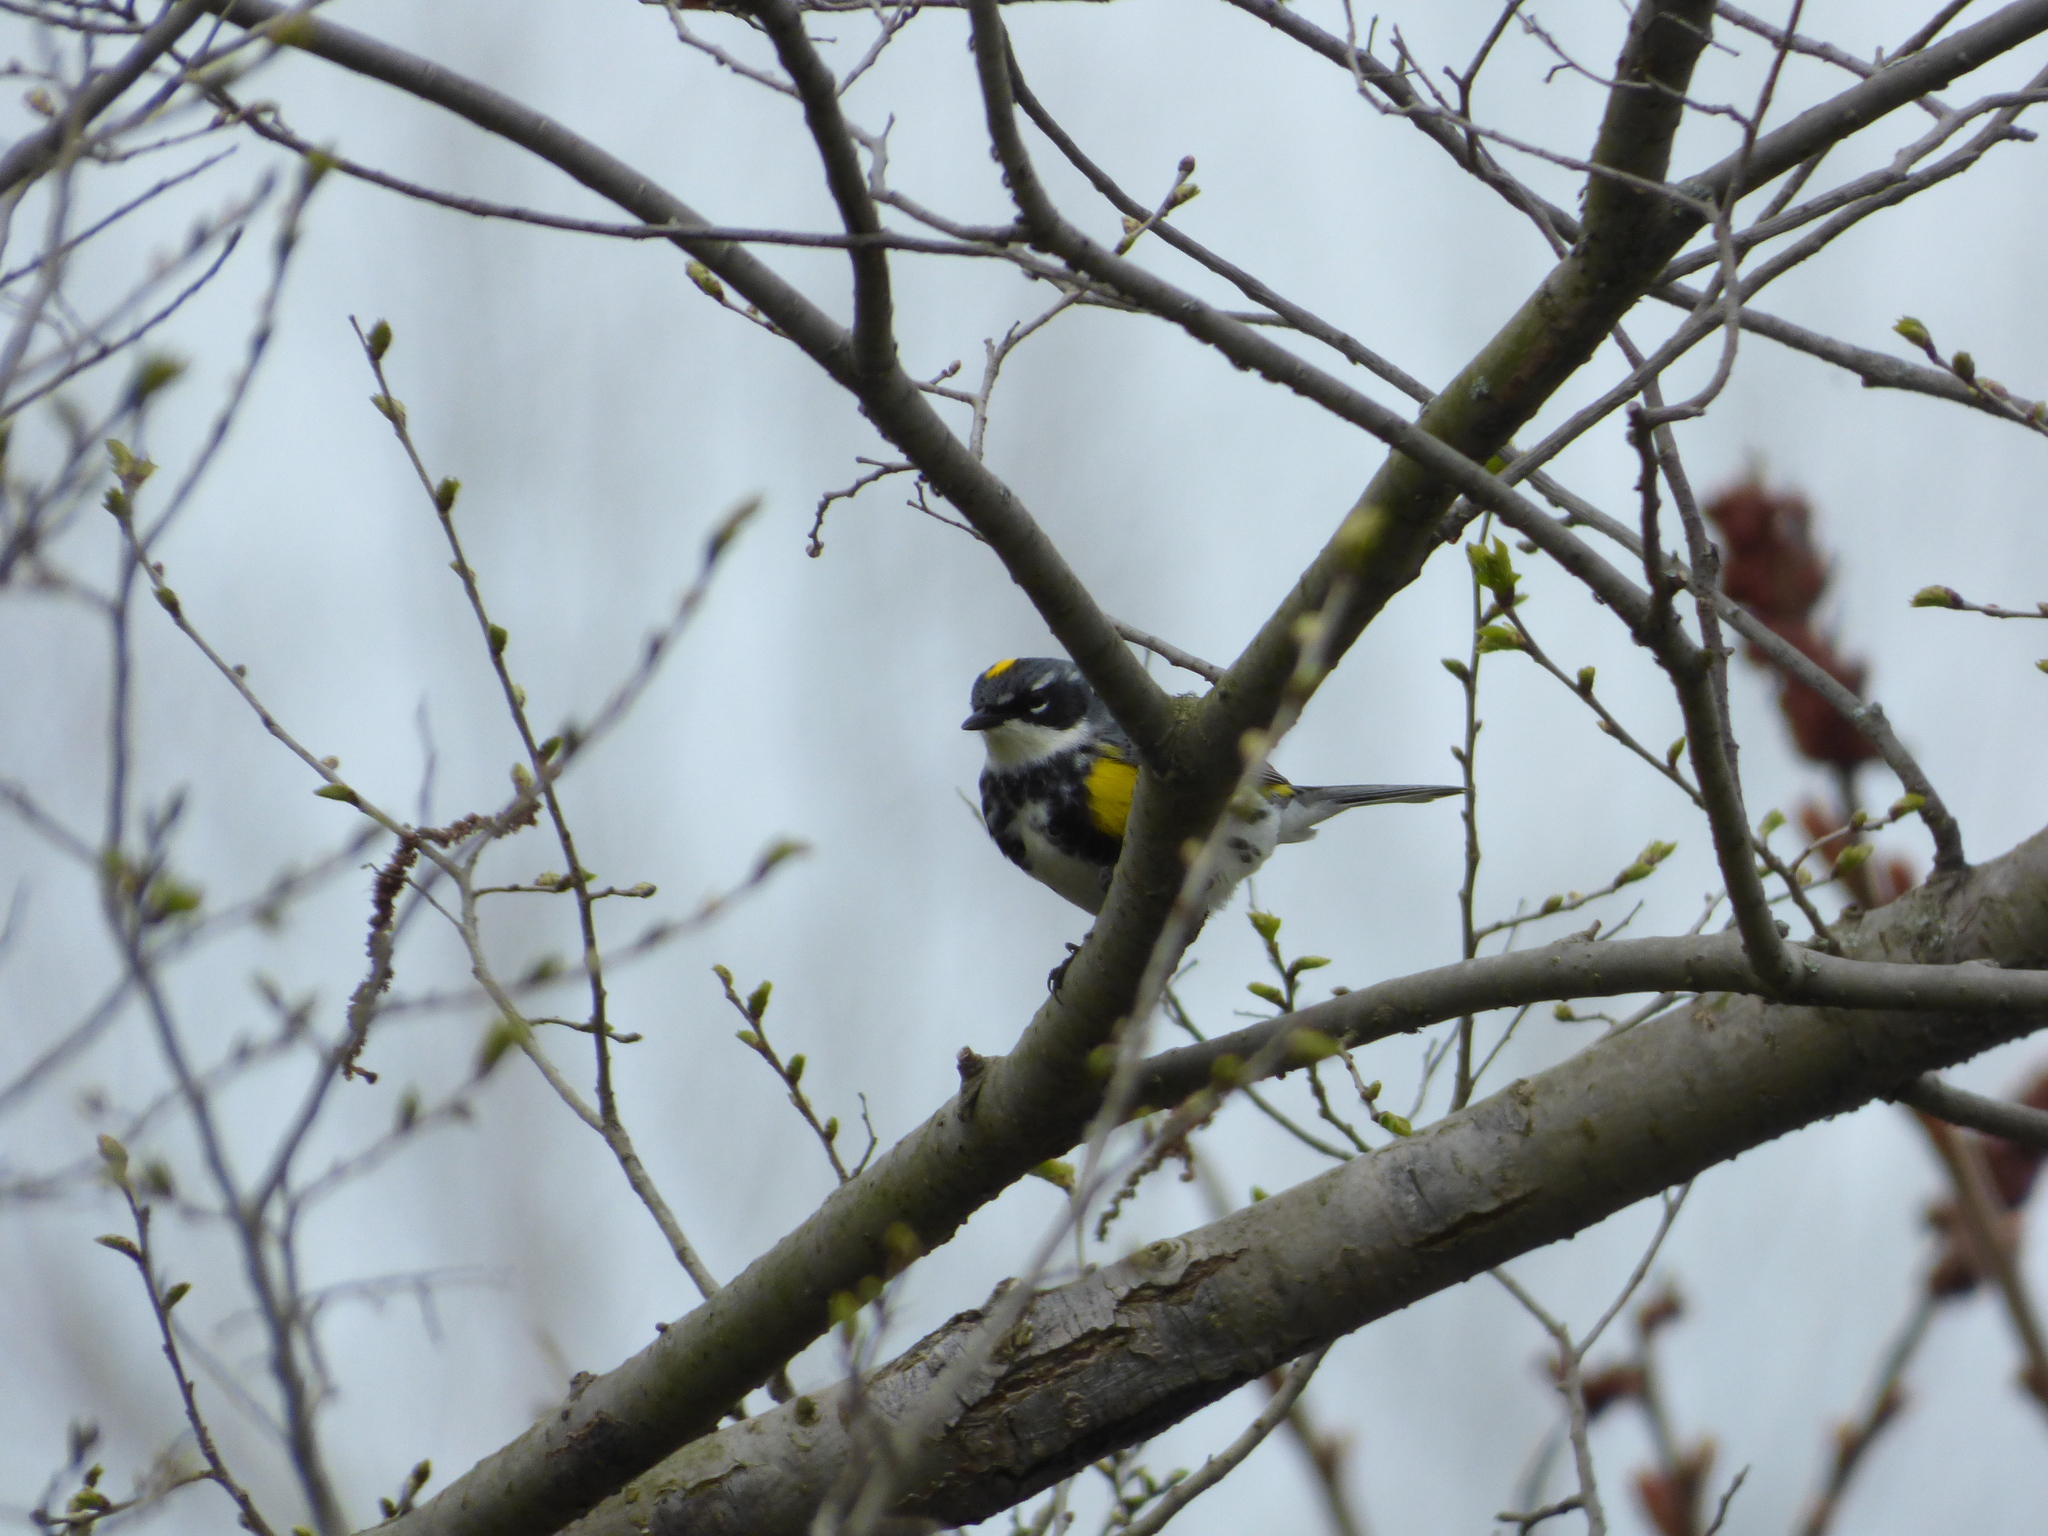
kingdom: Animalia
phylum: Chordata
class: Aves
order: Passeriformes
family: Parulidae
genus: Setophaga
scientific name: Setophaga coronata
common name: Myrtle warbler
